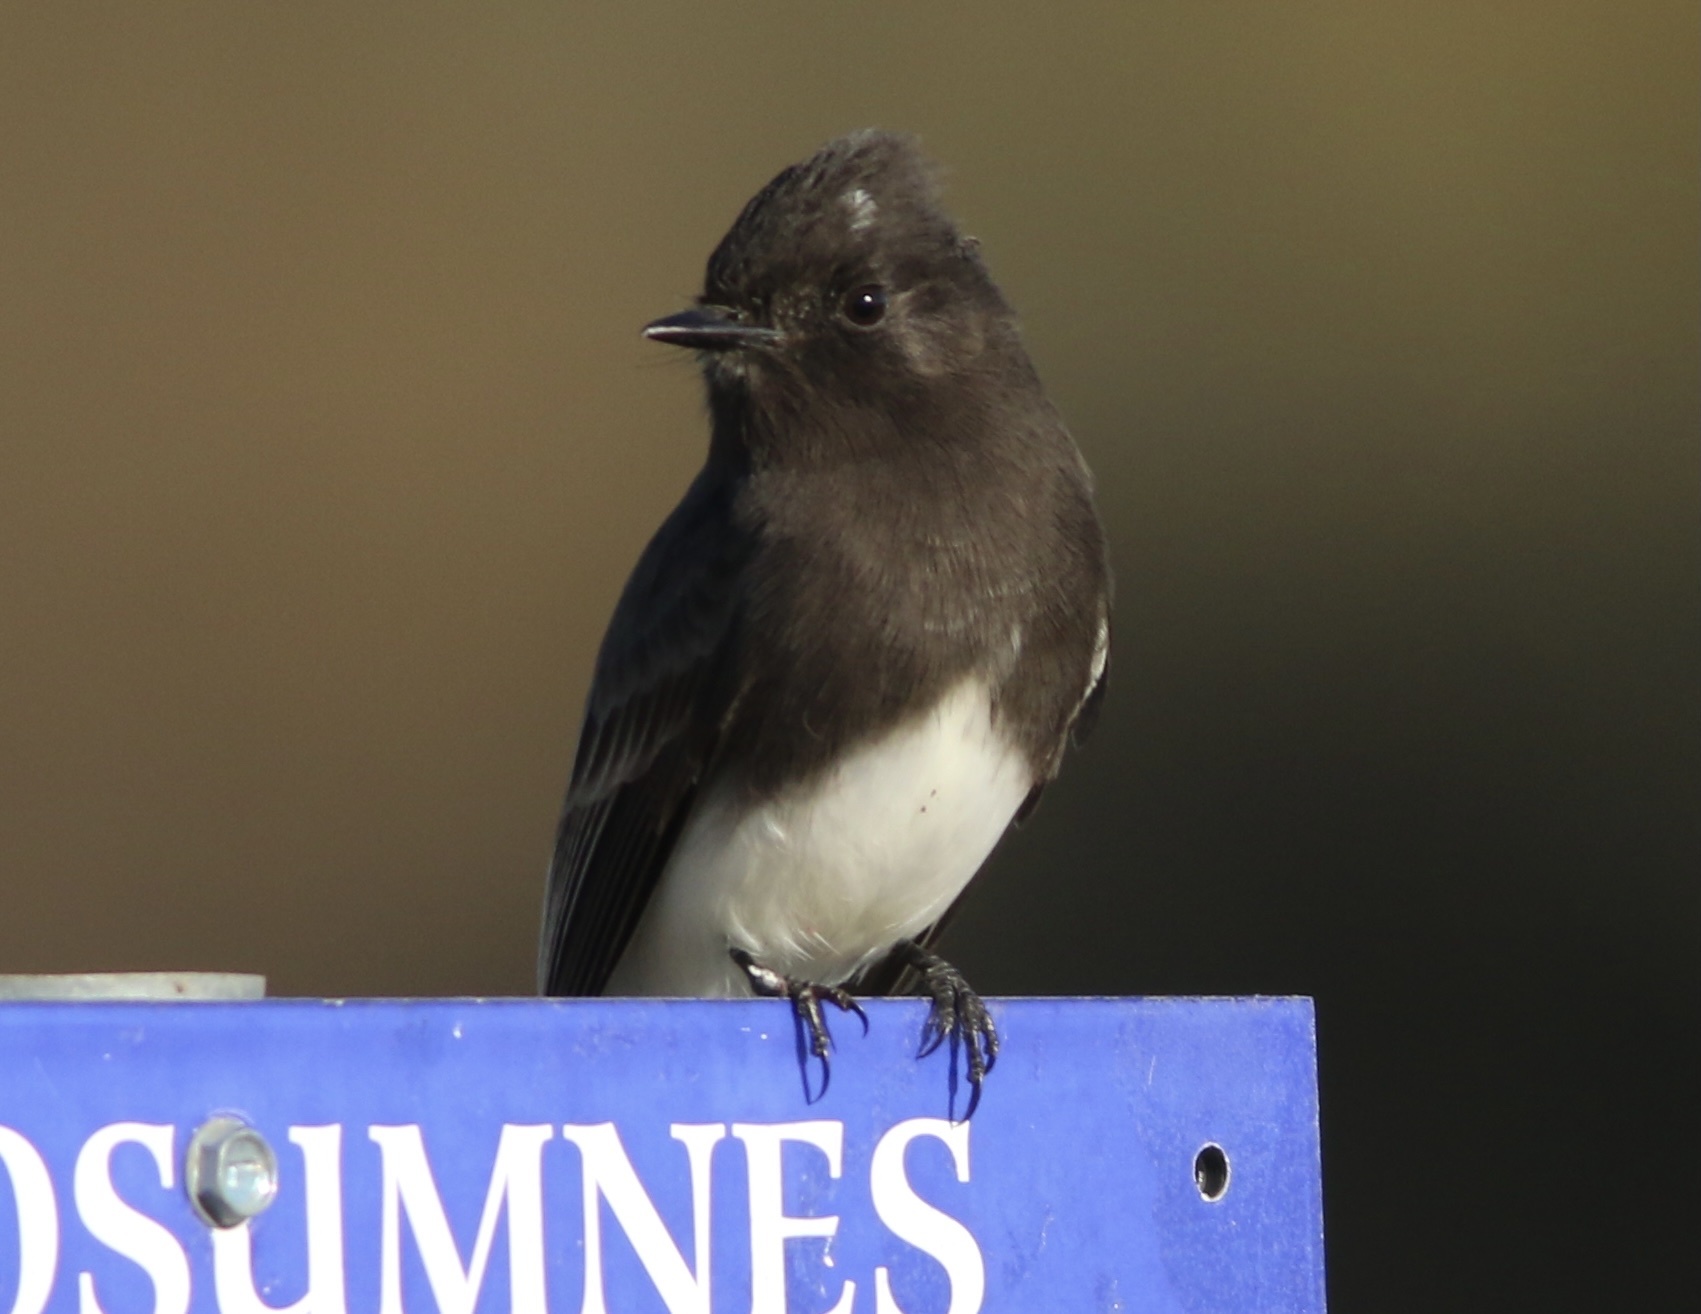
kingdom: Animalia
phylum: Chordata
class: Aves
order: Passeriformes
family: Tyrannidae
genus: Sayornis
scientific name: Sayornis nigricans
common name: Black phoebe
